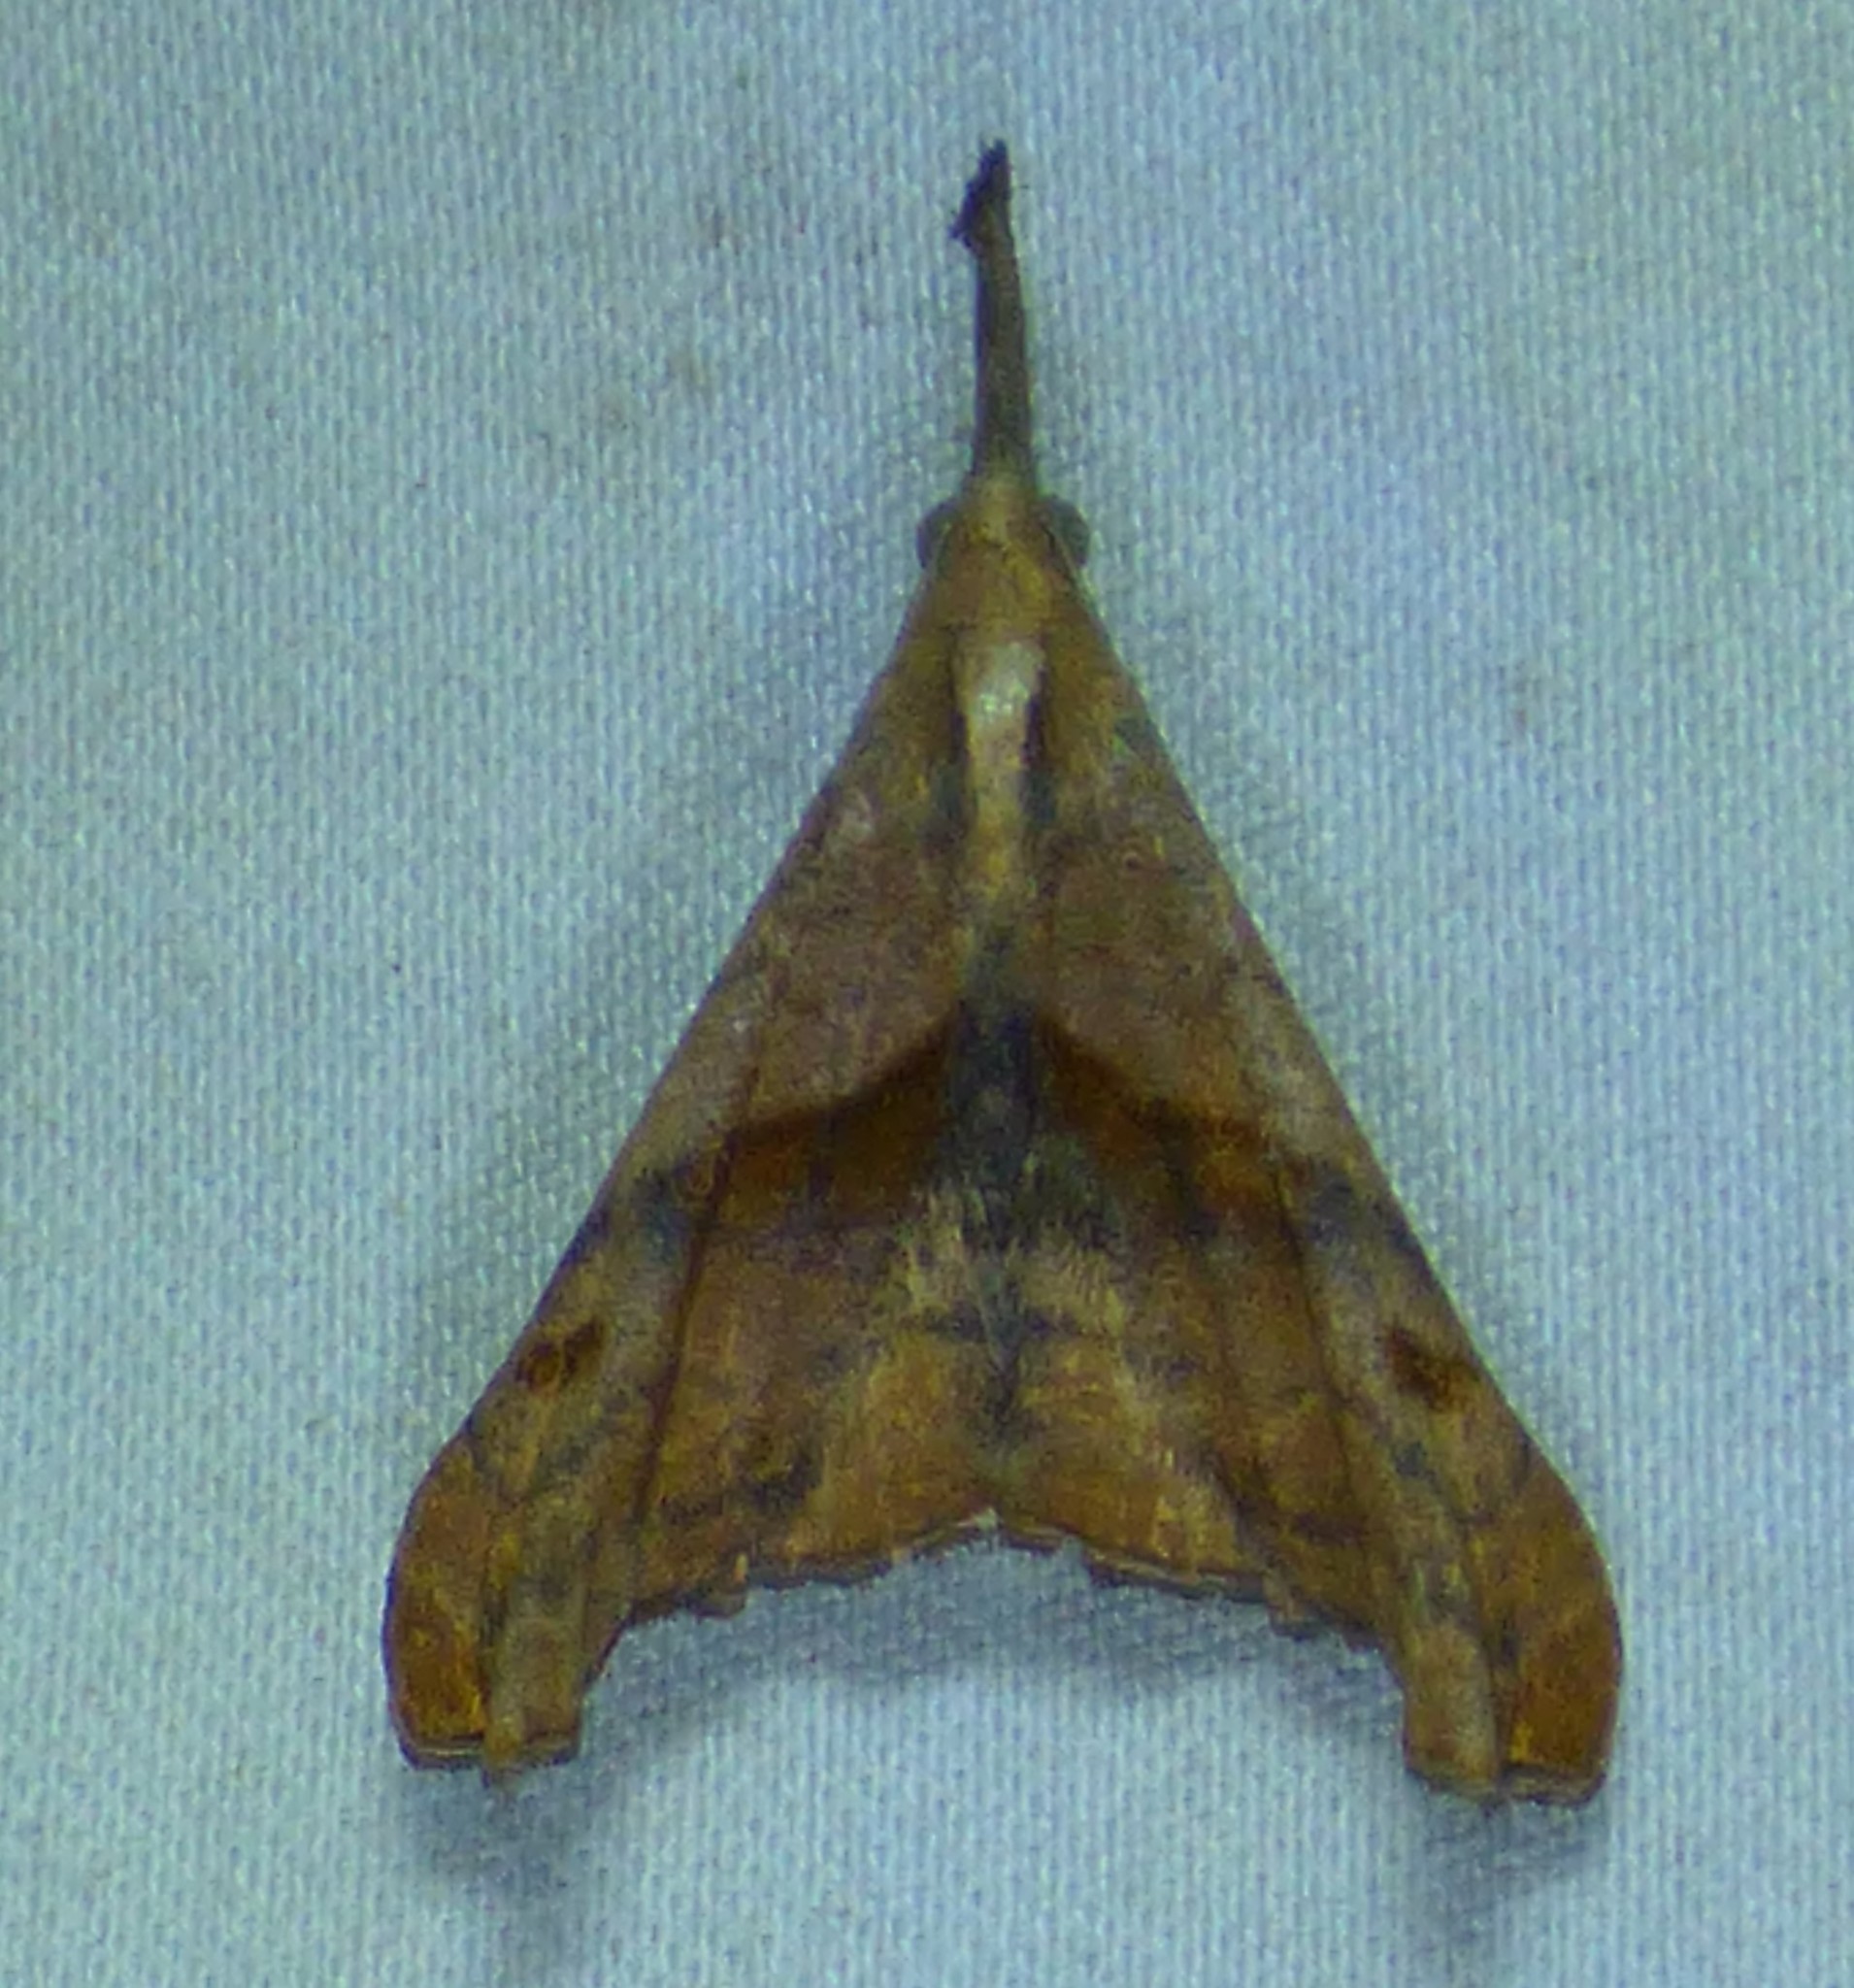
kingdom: Animalia
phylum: Arthropoda
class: Insecta
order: Lepidoptera
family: Erebidae
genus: Palthis
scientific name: Palthis angulalis
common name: Dark-spotted palthis moth
